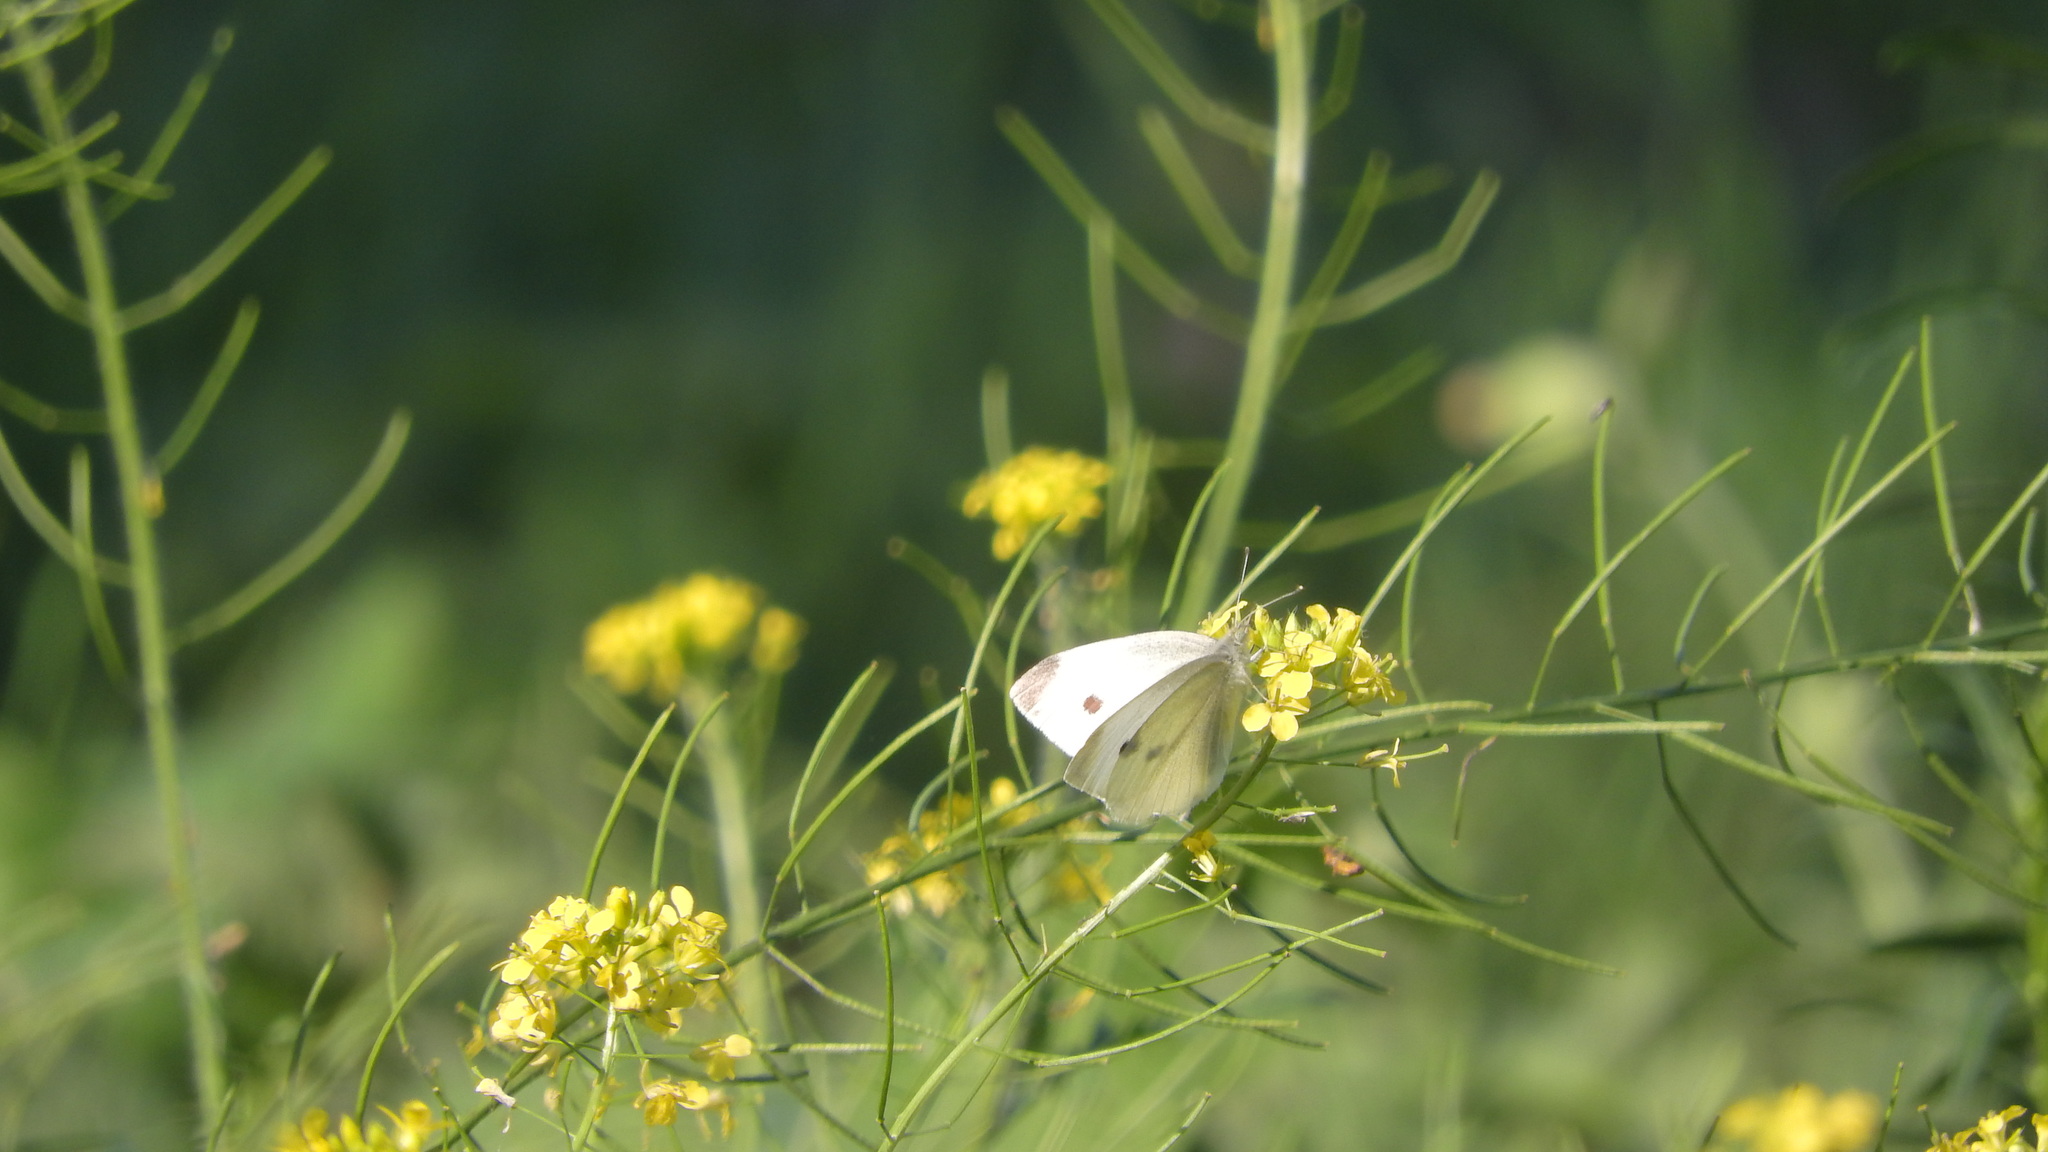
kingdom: Animalia
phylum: Arthropoda
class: Insecta
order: Lepidoptera
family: Pieridae
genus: Pieris
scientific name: Pieris rapae
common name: Small white
